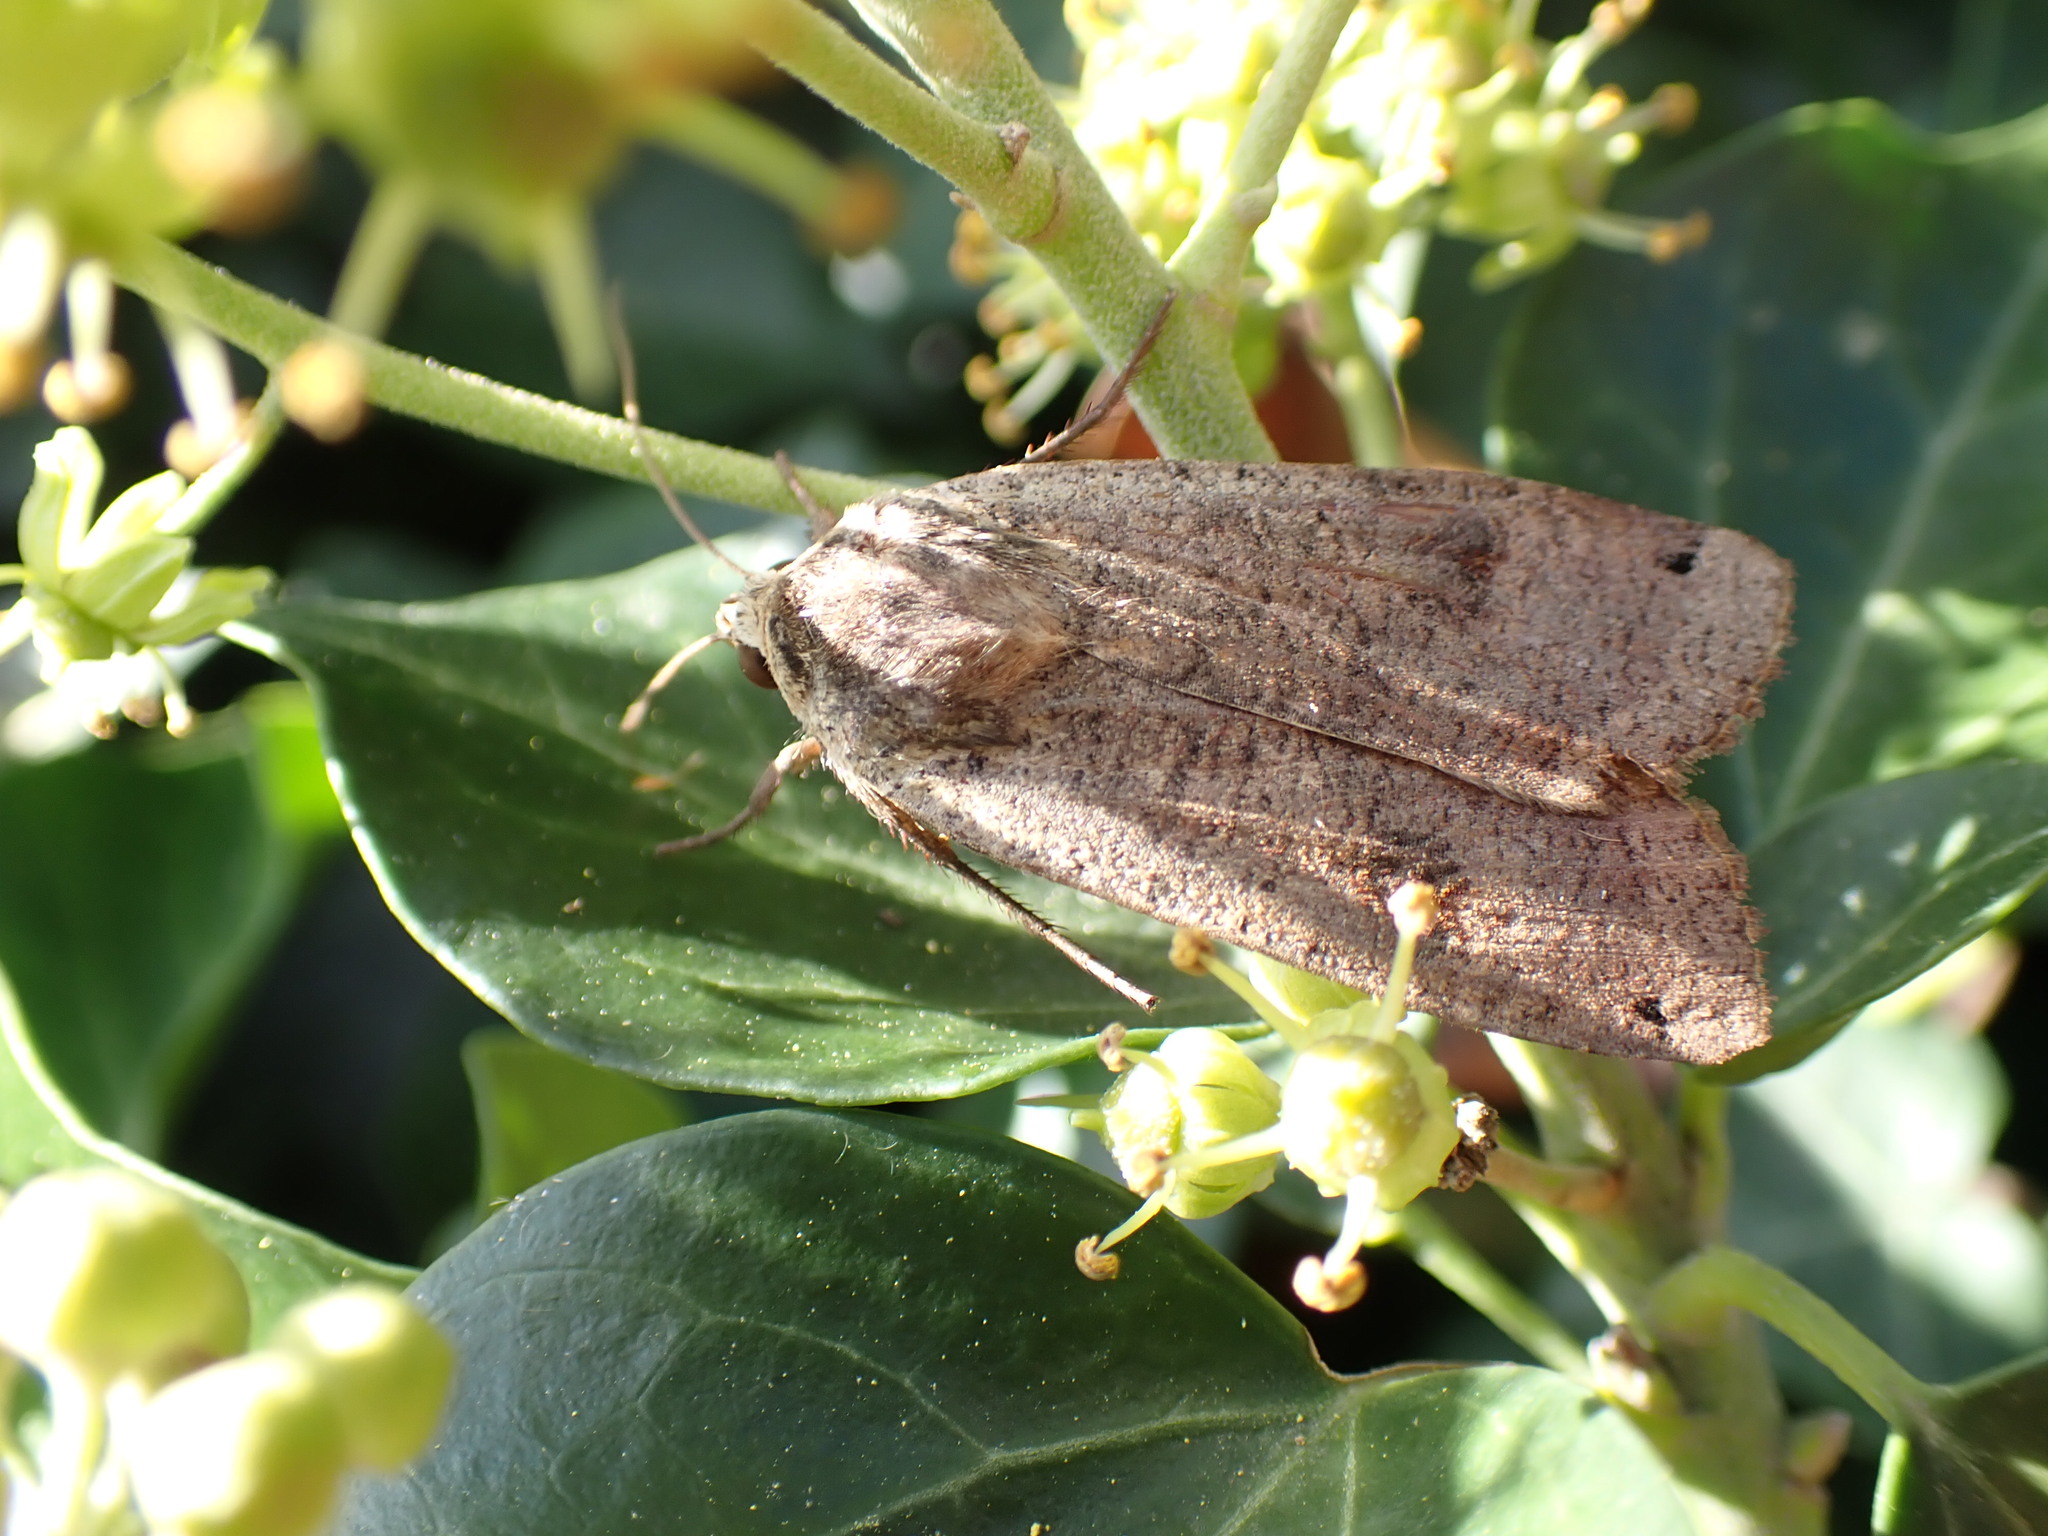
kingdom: Animalia
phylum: Arthropoda
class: Insecta
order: Lepidoptera
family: Noctuidae
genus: Noctua
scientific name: Noctua pronuba
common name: Large yellow underwing
